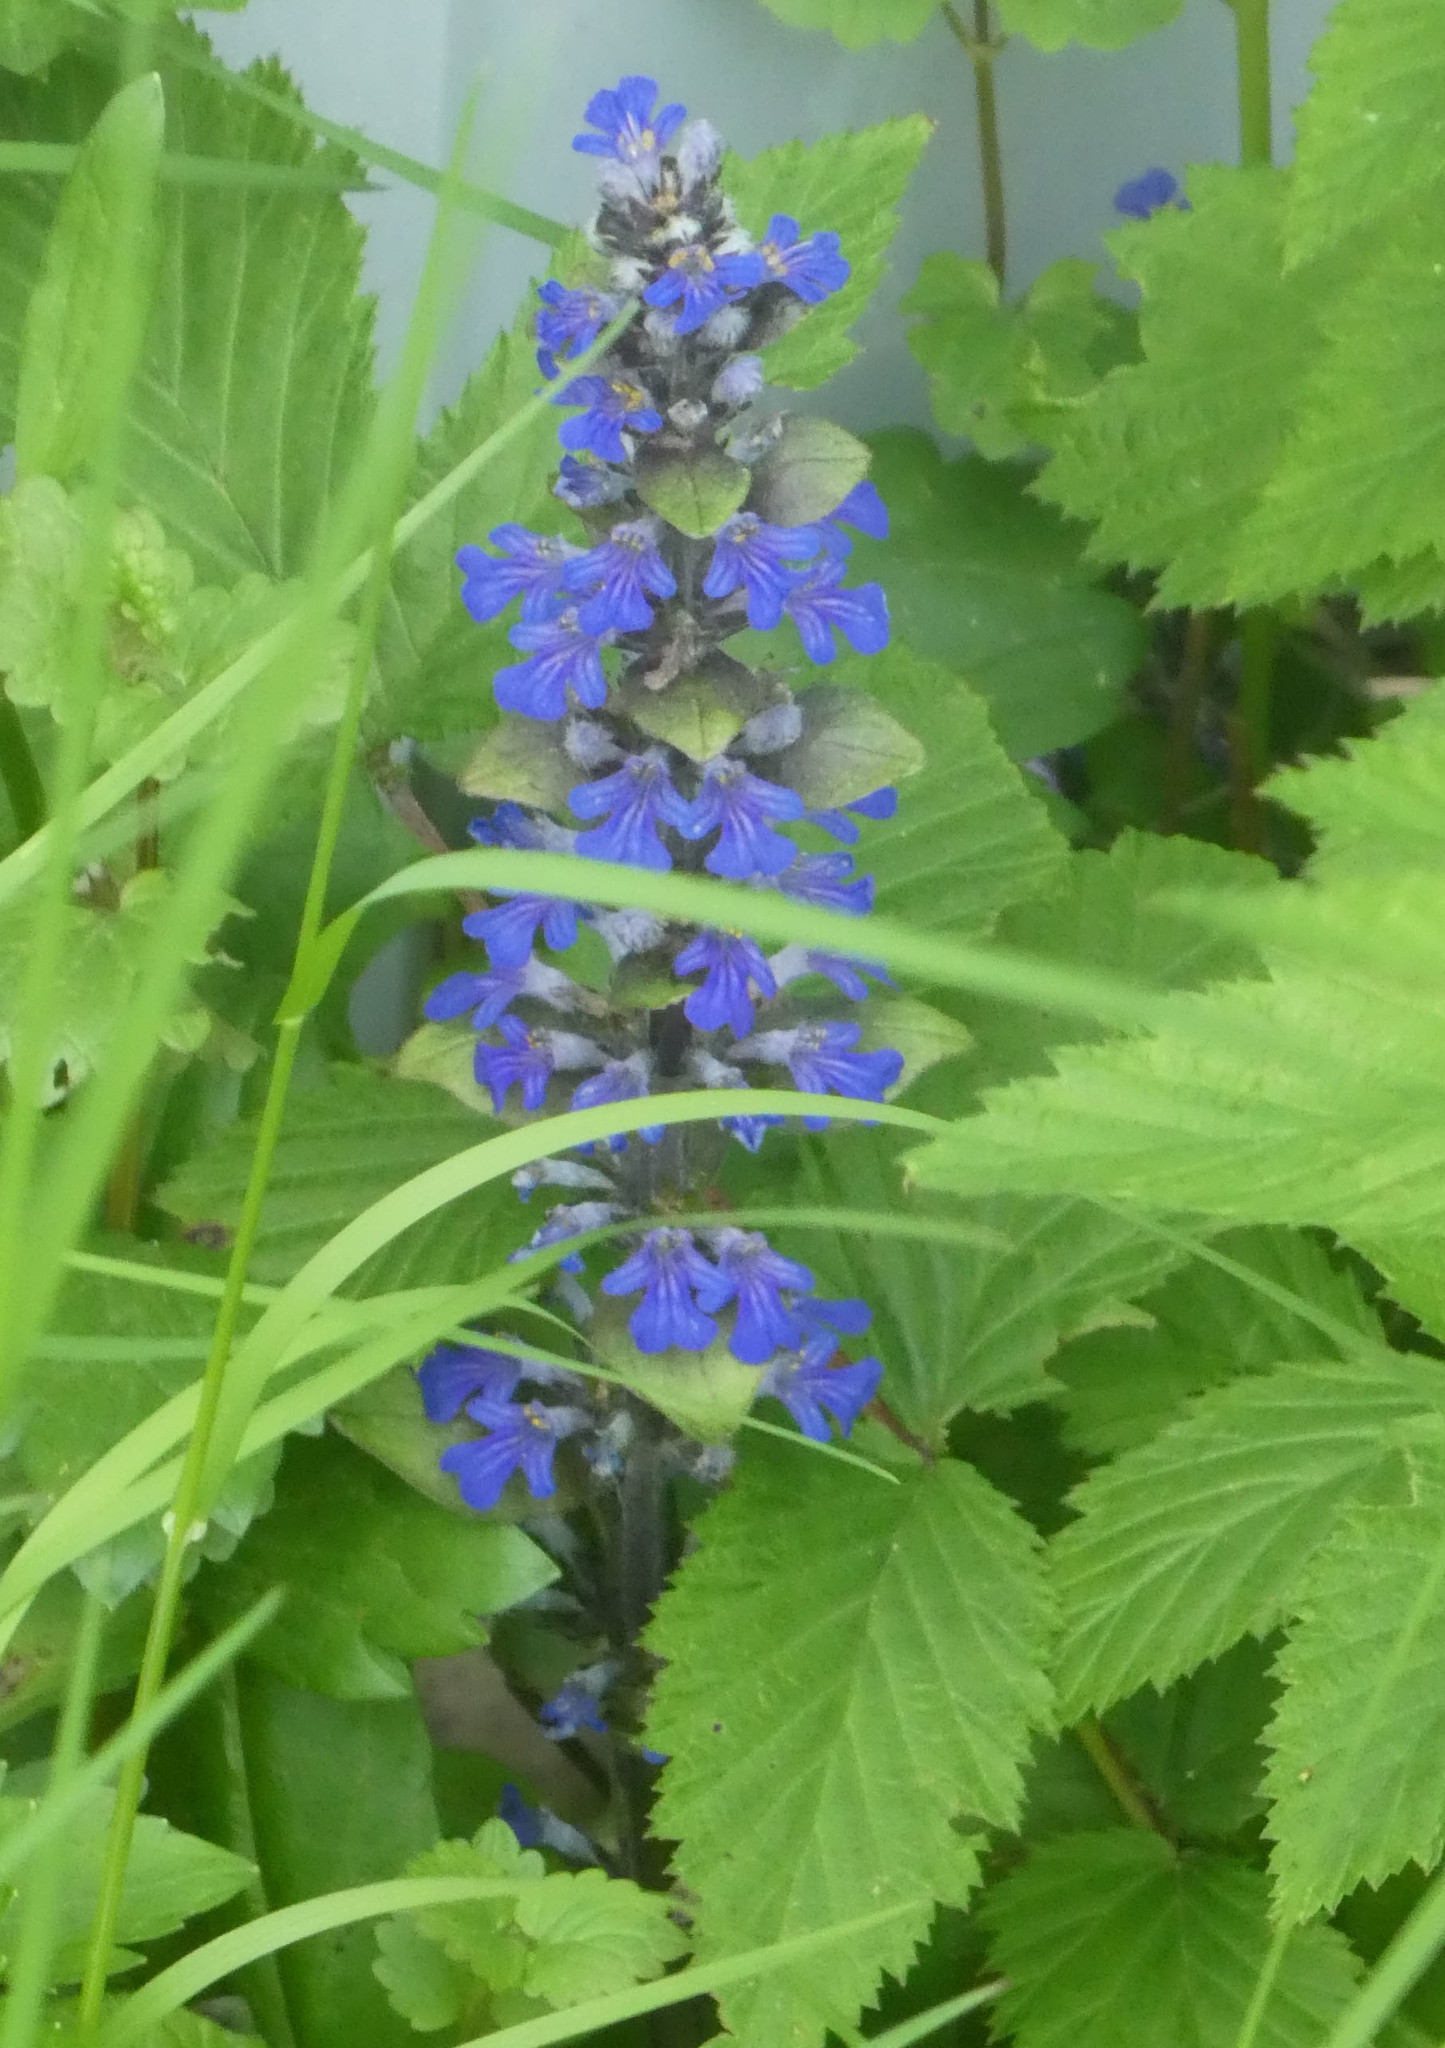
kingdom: Plantae
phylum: Tracheophyta
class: Magnoliopsida
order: Lamiales
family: Lamiaceae
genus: Ajuga
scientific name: Ajuga reptans
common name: Bugle
